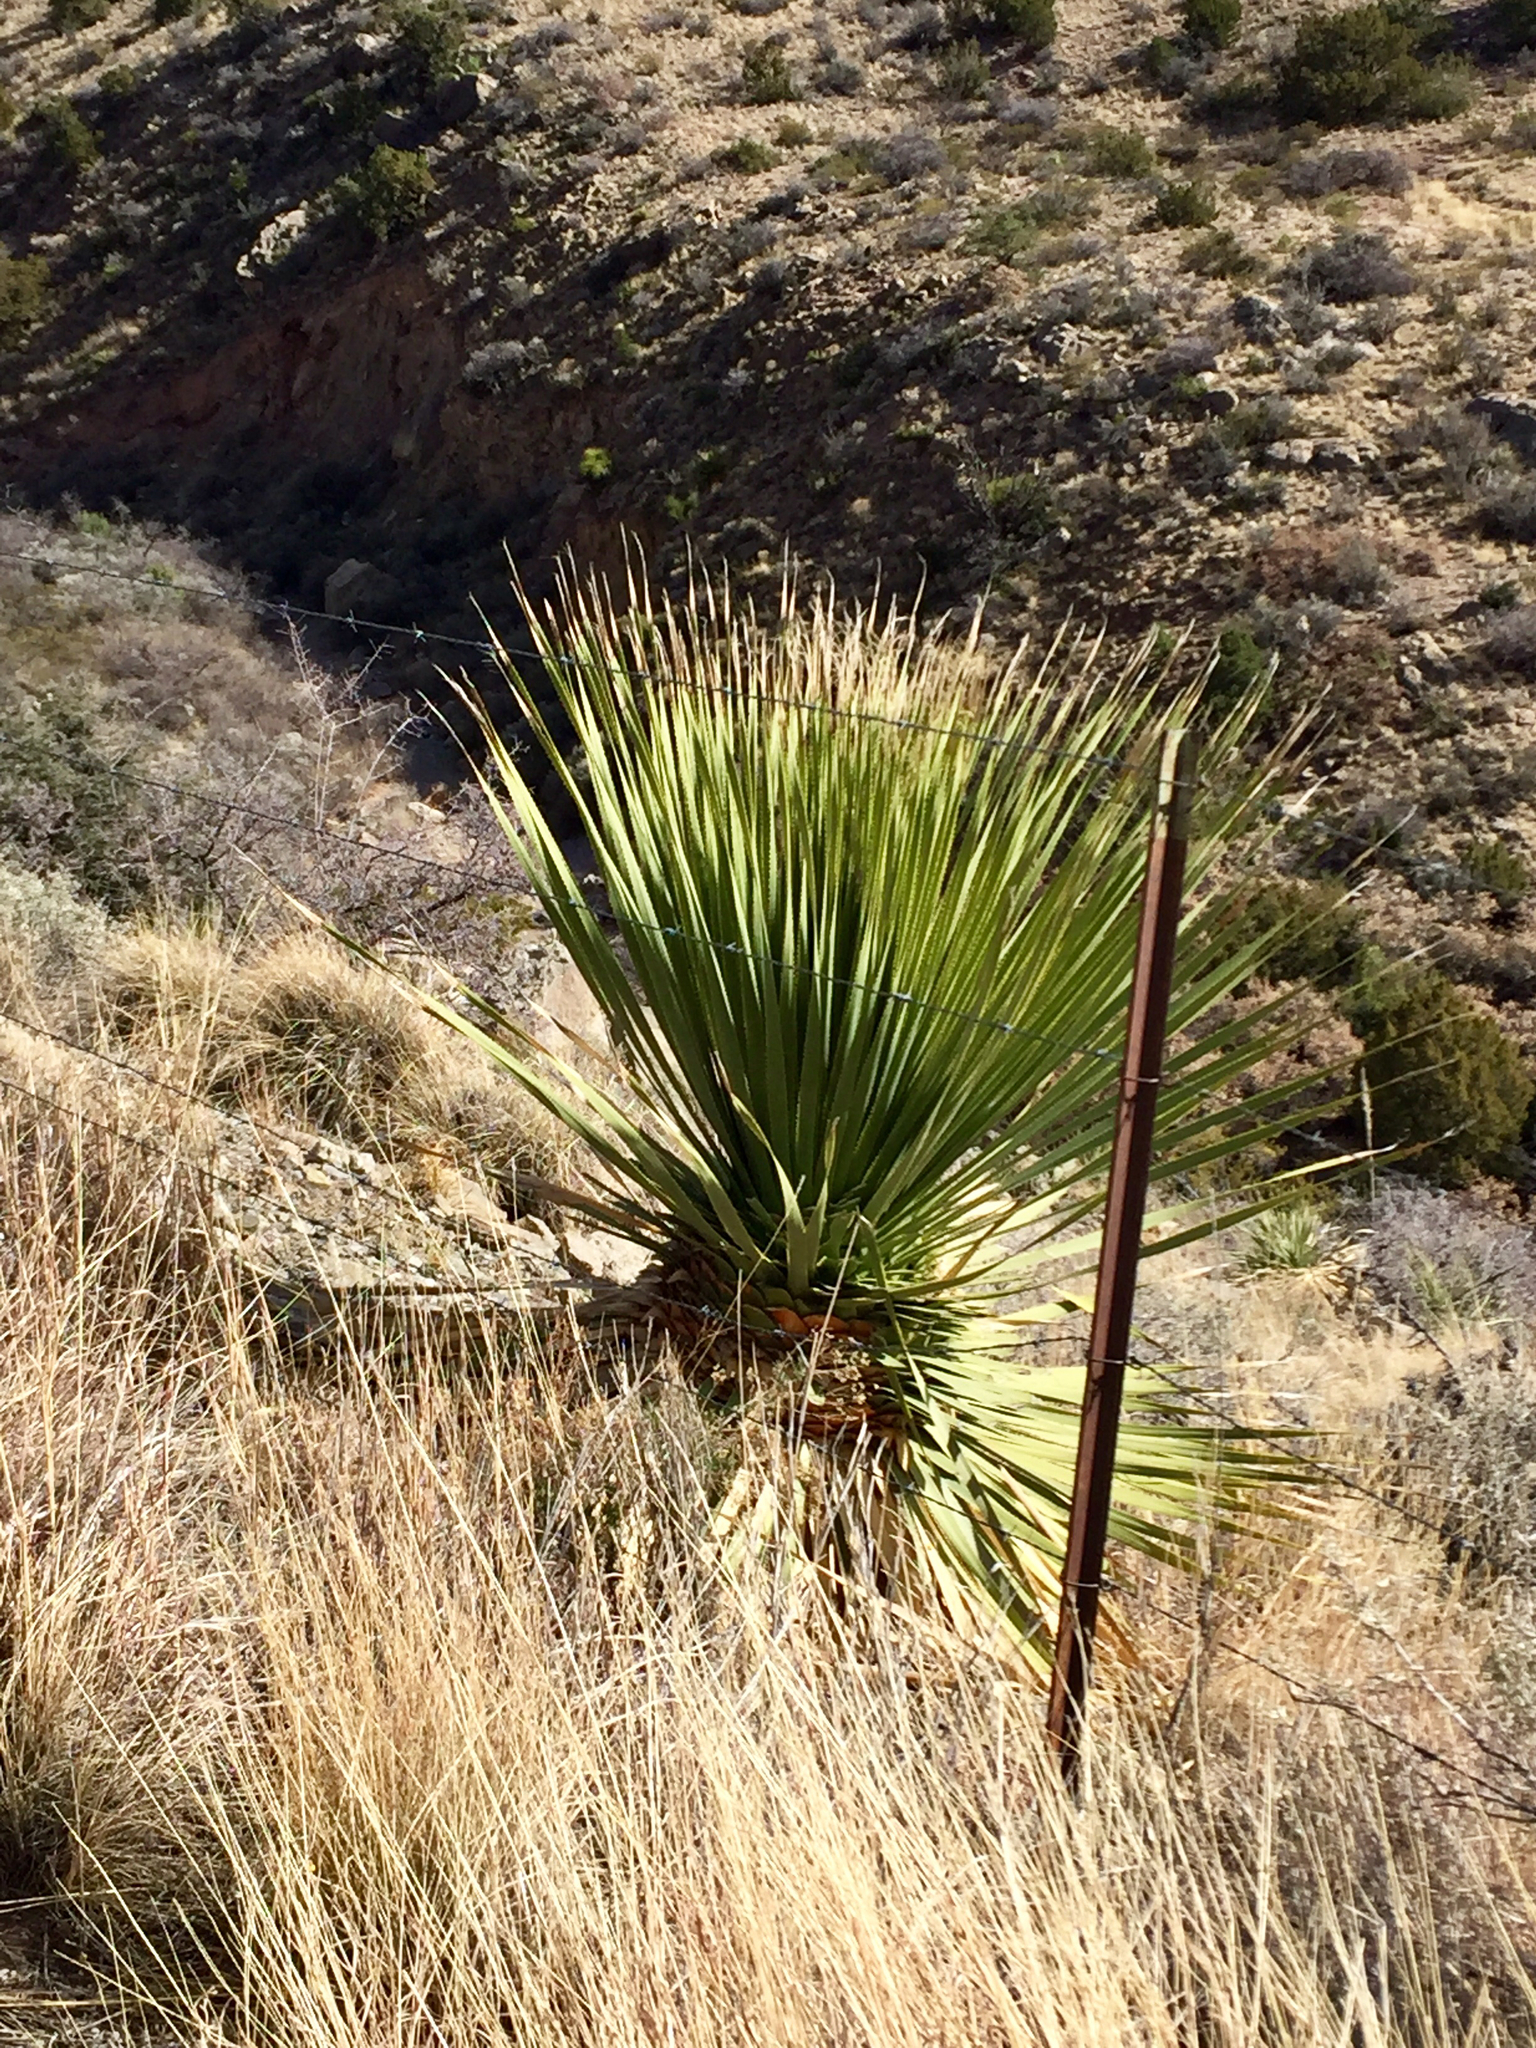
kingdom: Plantae
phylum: Tracheophyta
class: Liliopsida
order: Asparagales
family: Asparagaceae
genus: Dasylirion
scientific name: Dasylirion wheeleri
